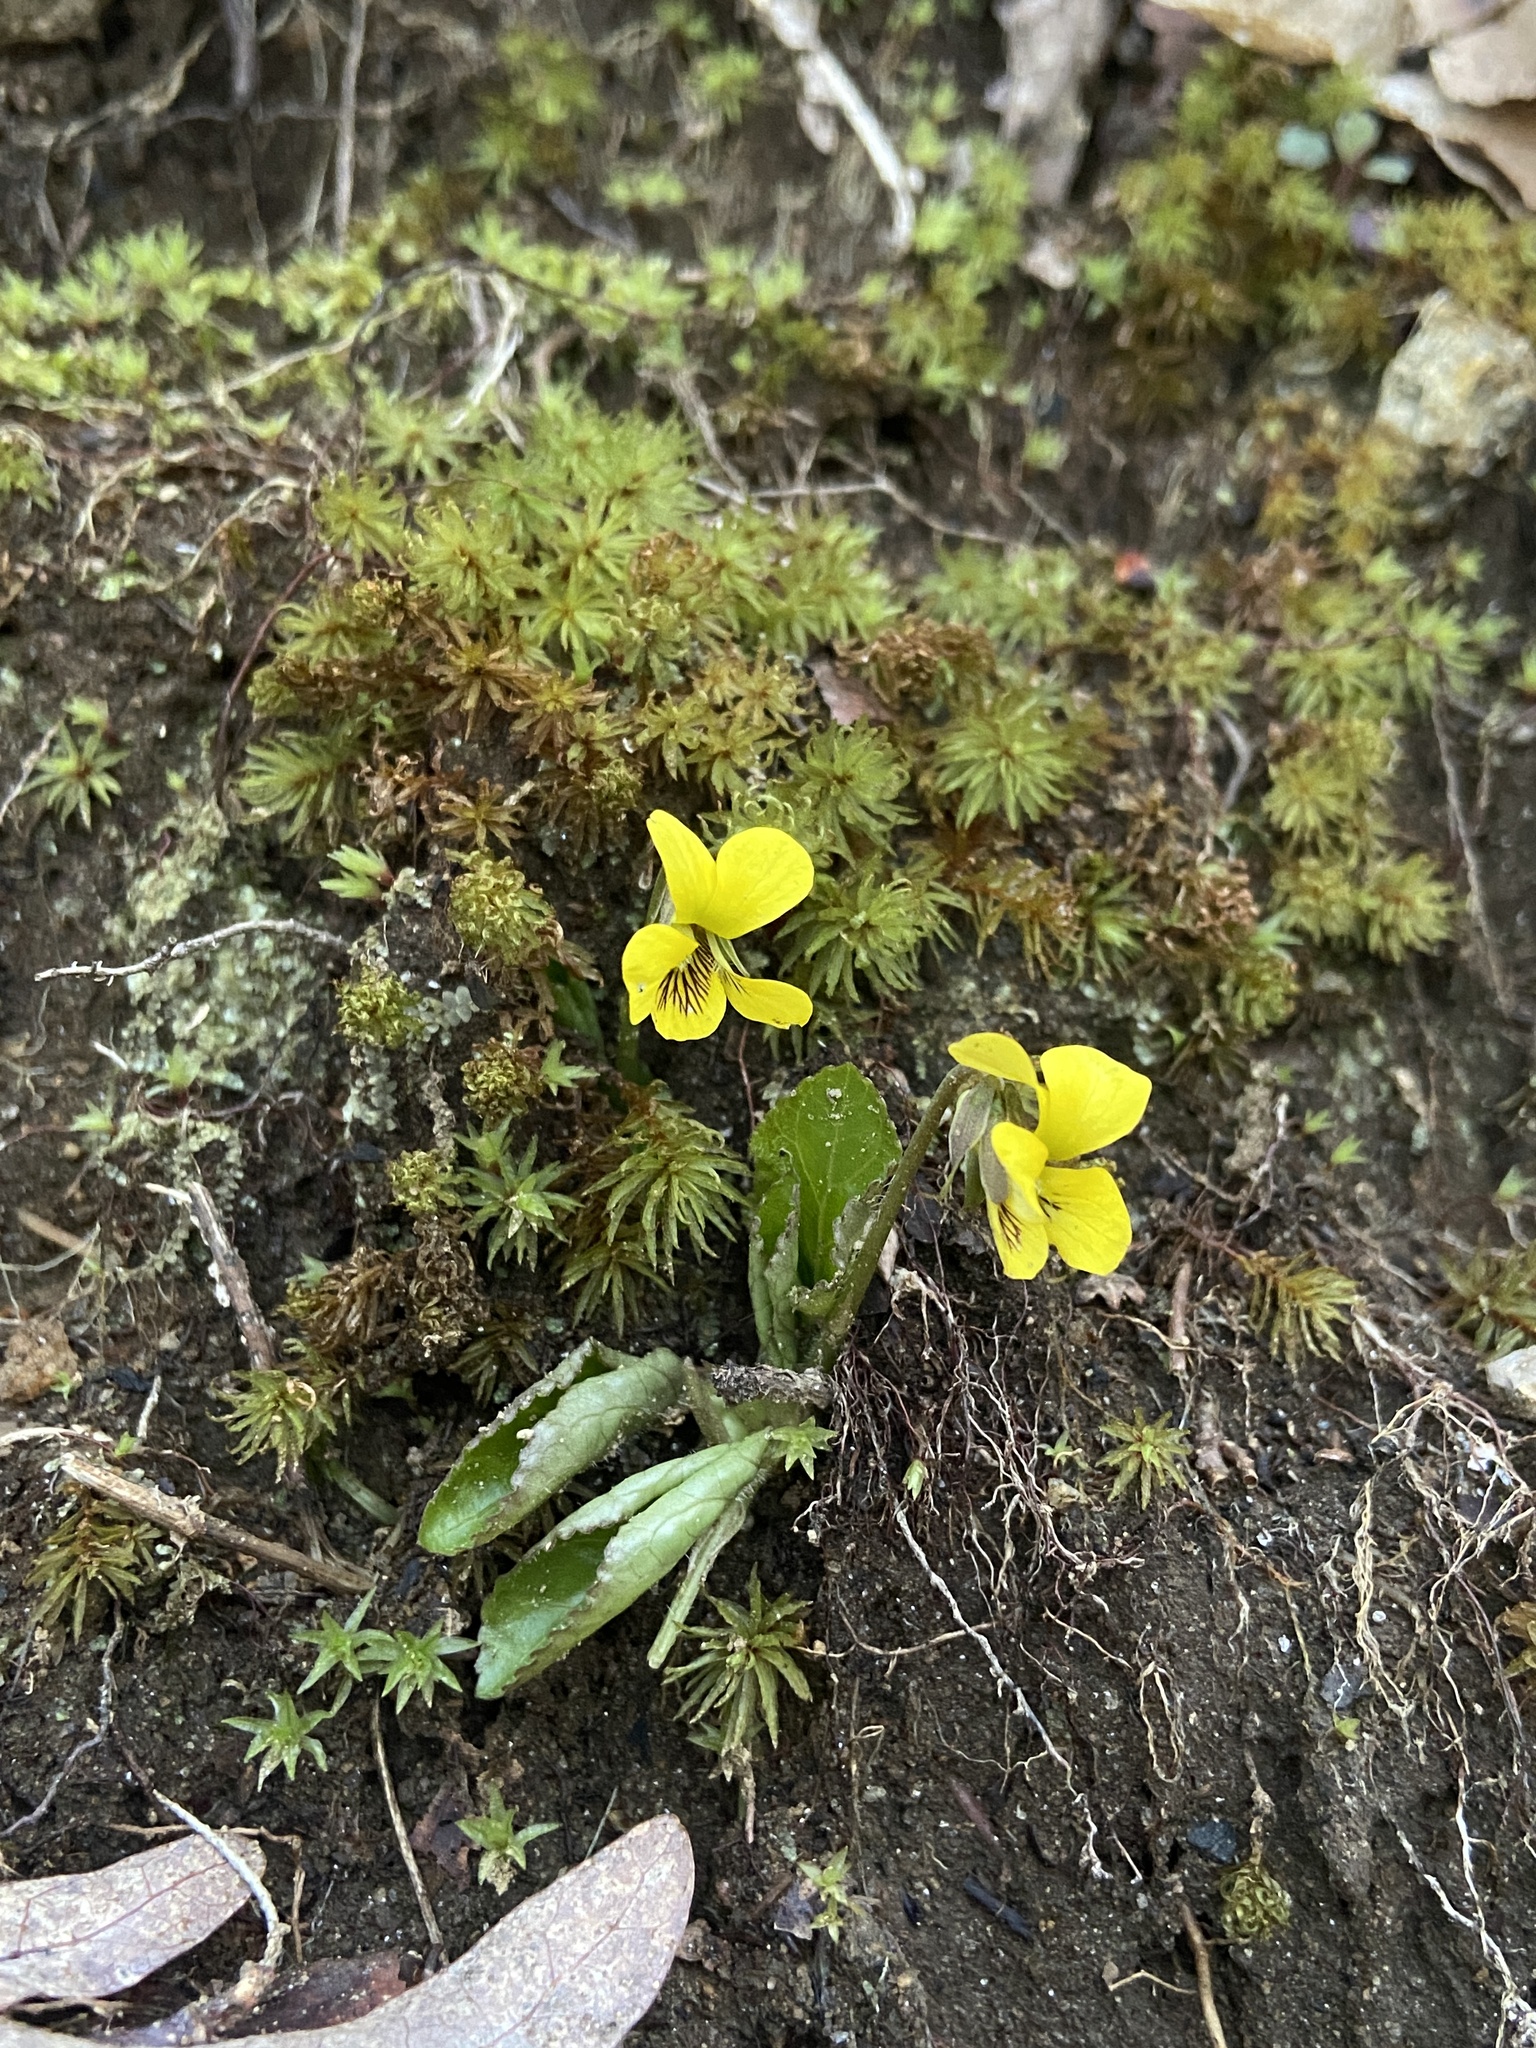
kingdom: Plantae
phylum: Tracheophyta
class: Magnoliopsida
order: Malpighiales
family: Violaceae
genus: Viola
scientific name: Viola rotundifolia
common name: Early yellow violet
